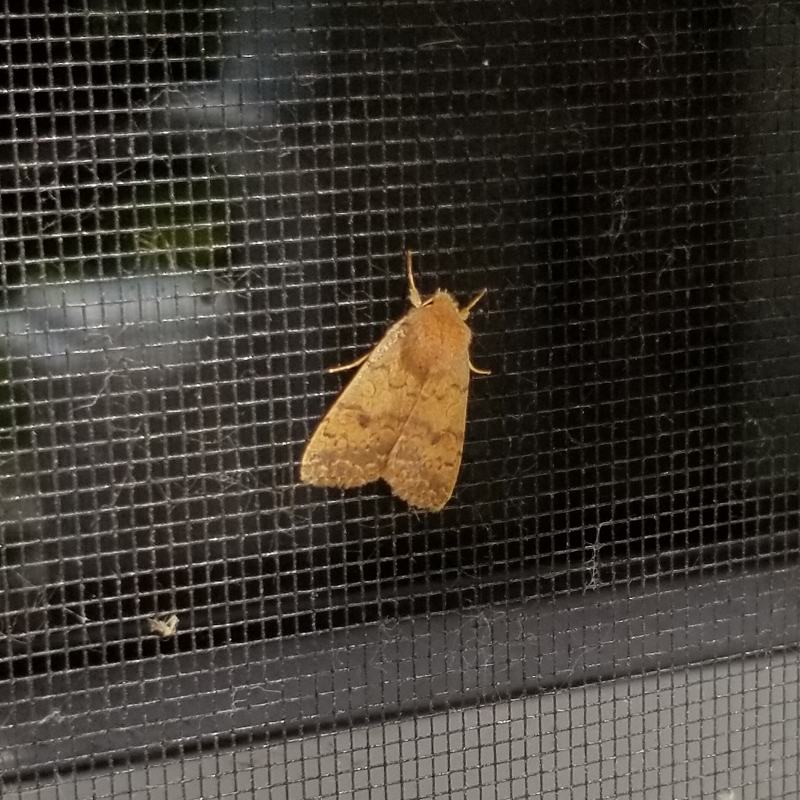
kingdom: Animalia
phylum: Arthropoda
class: Insecta
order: Lepidoptera
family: Noctuidae
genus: Agrochola
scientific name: Agrochola bicolorago
